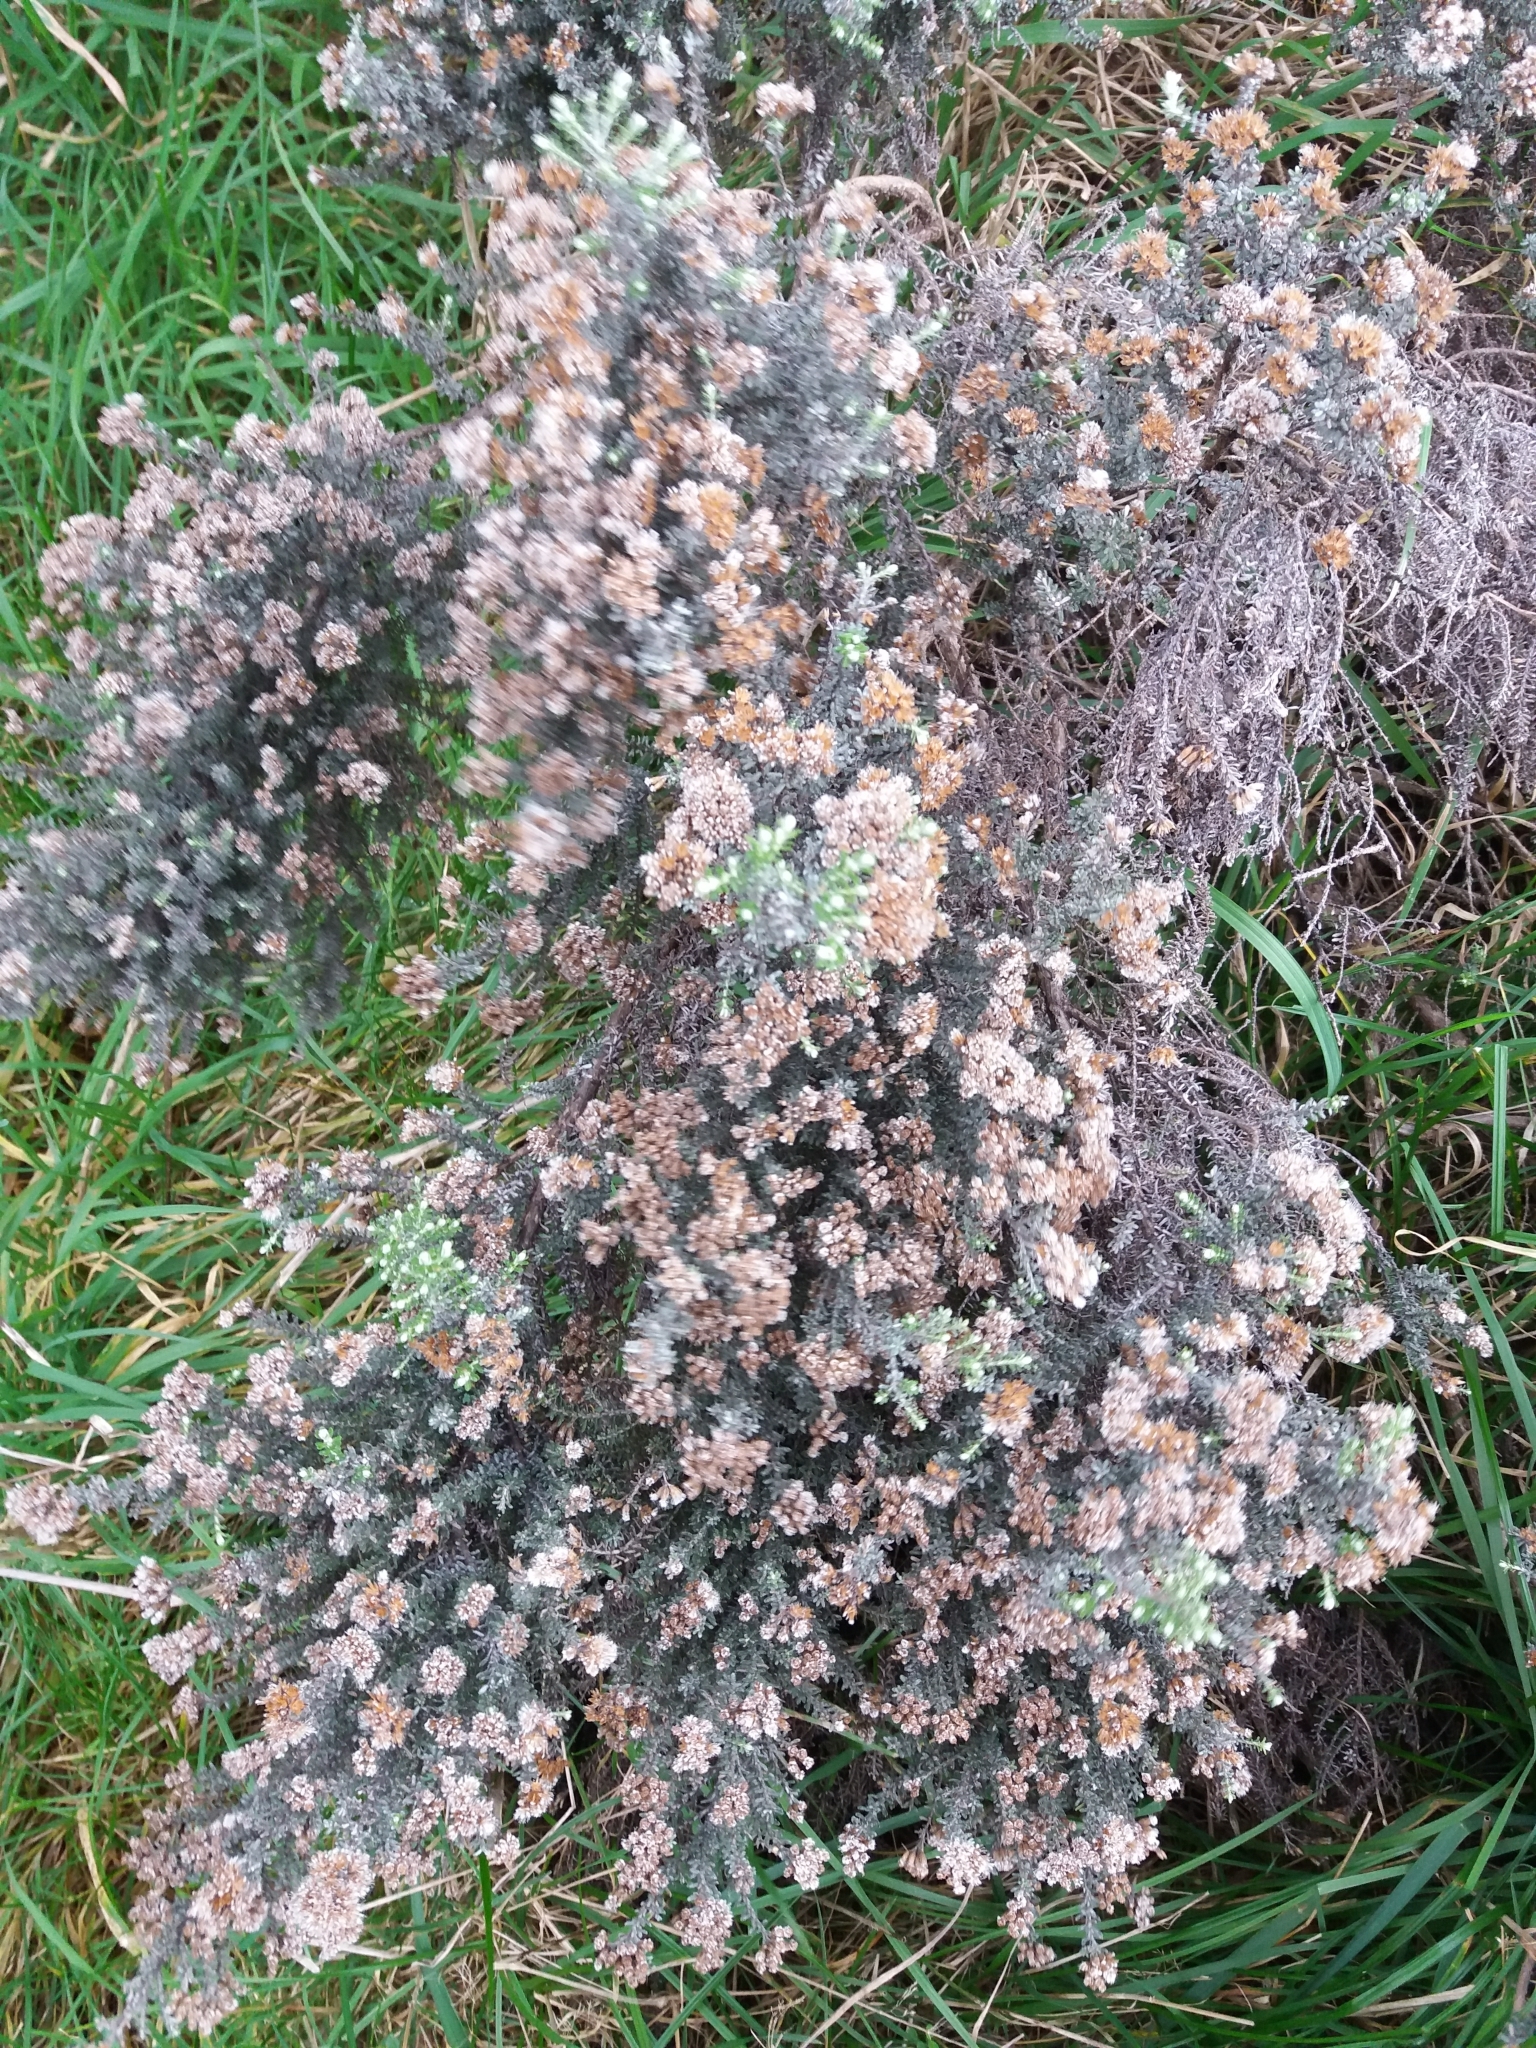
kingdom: Plantae
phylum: Tracheophyta
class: Magnoliopsida
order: Asterales
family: Asteraceae
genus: Ozothamnus
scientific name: Ozothamnus leptophyllus
